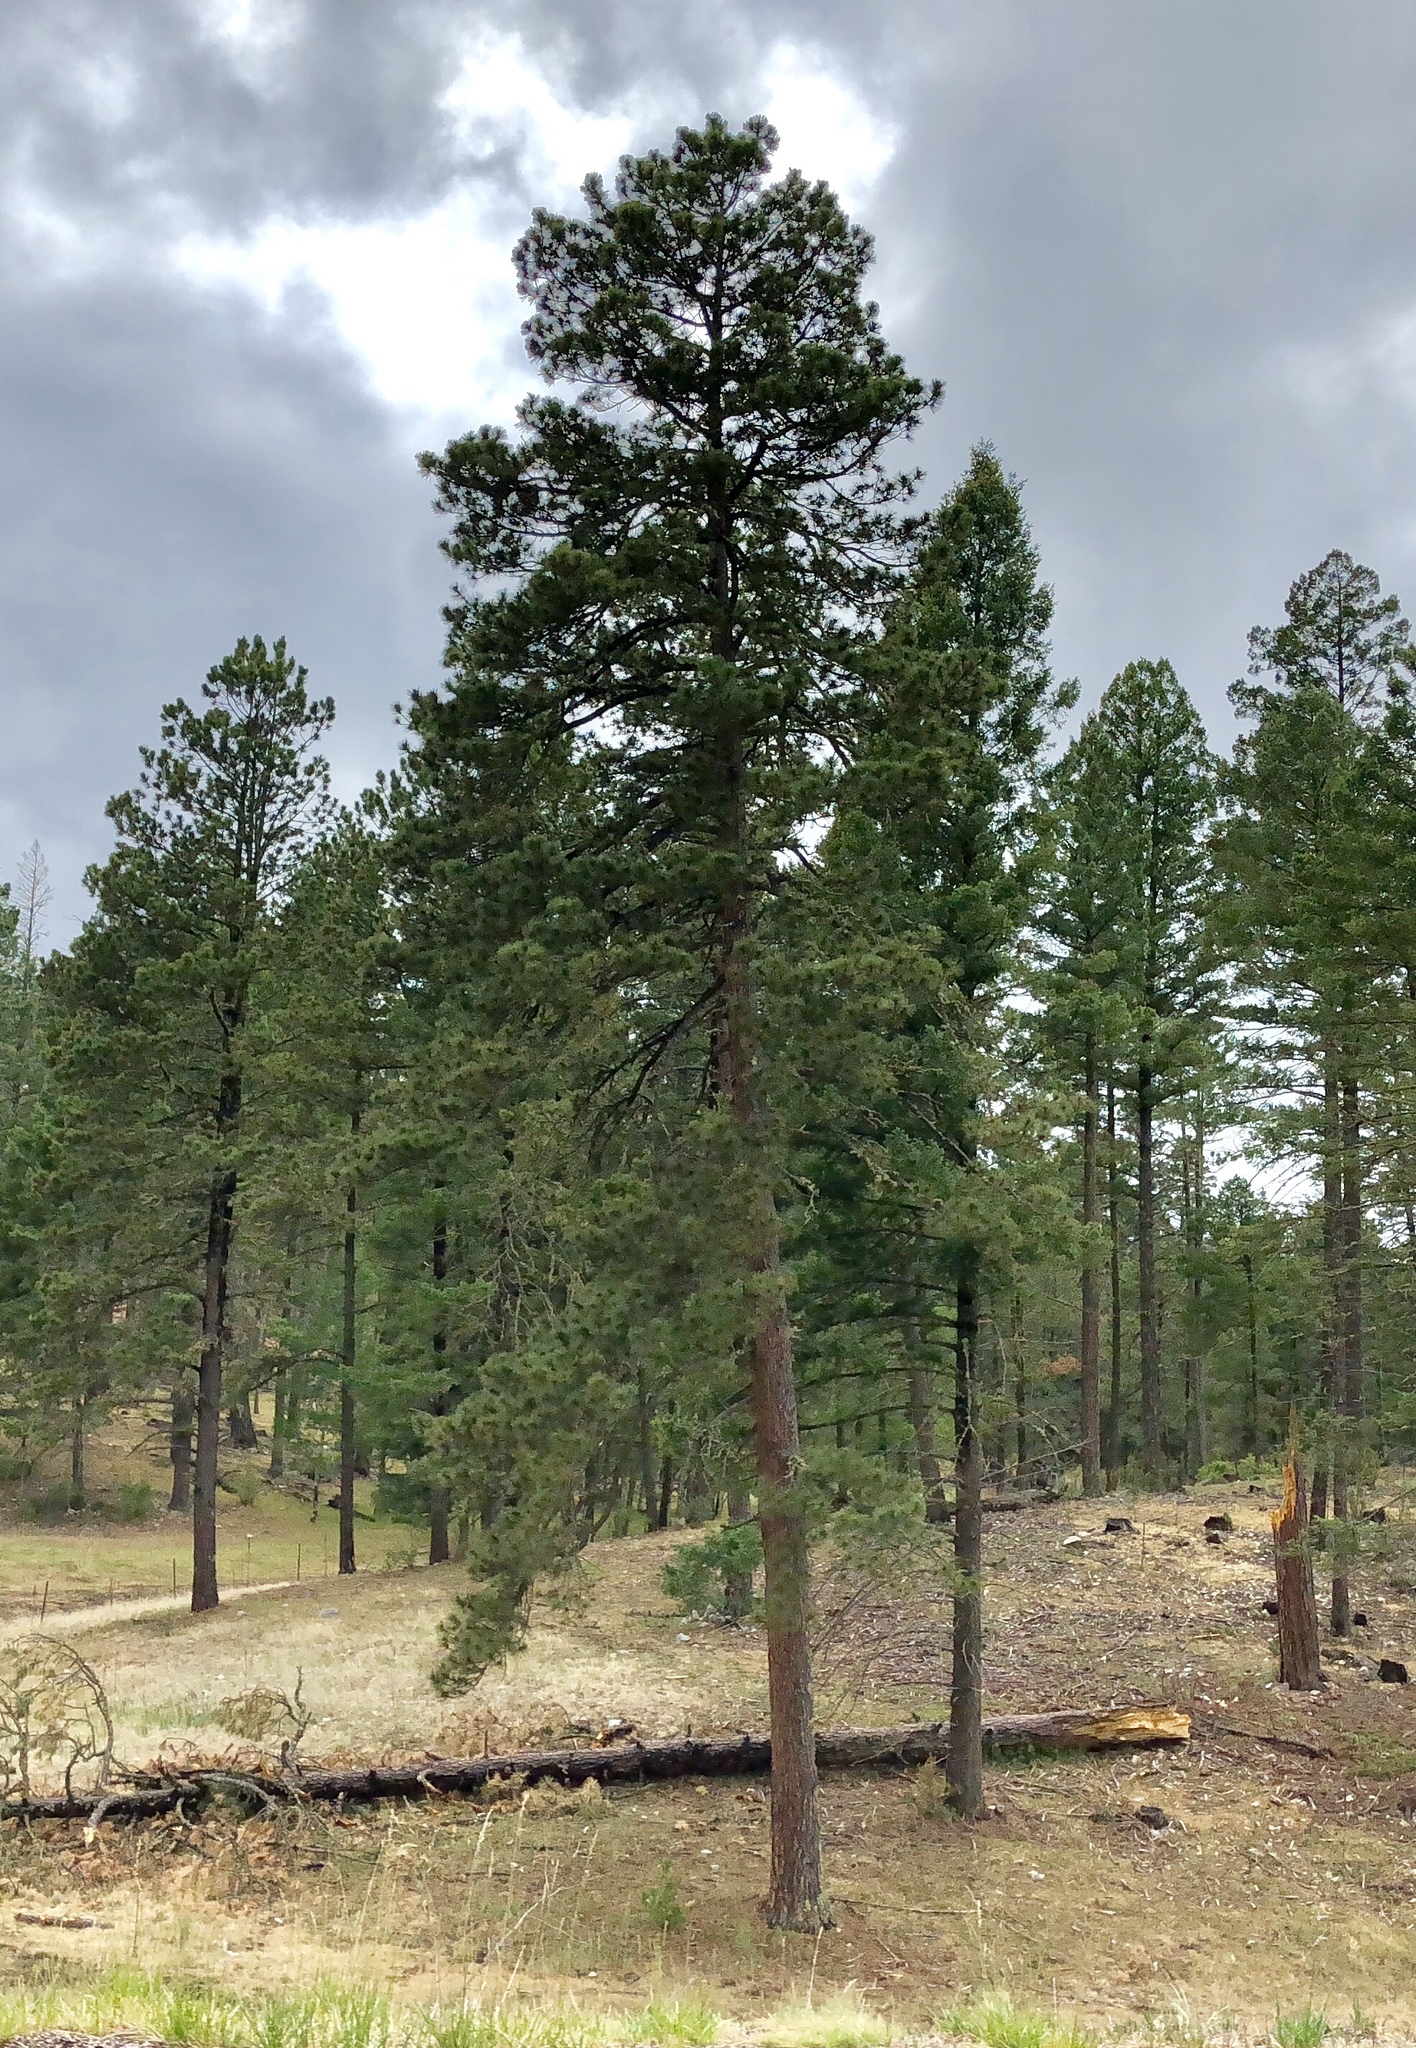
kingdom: Plantae
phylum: Tracheophyta
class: Pinopsida
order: Pinales
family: Pinaceae
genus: Pinus
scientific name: Pinus ponderosa
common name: Western yellow-pine
